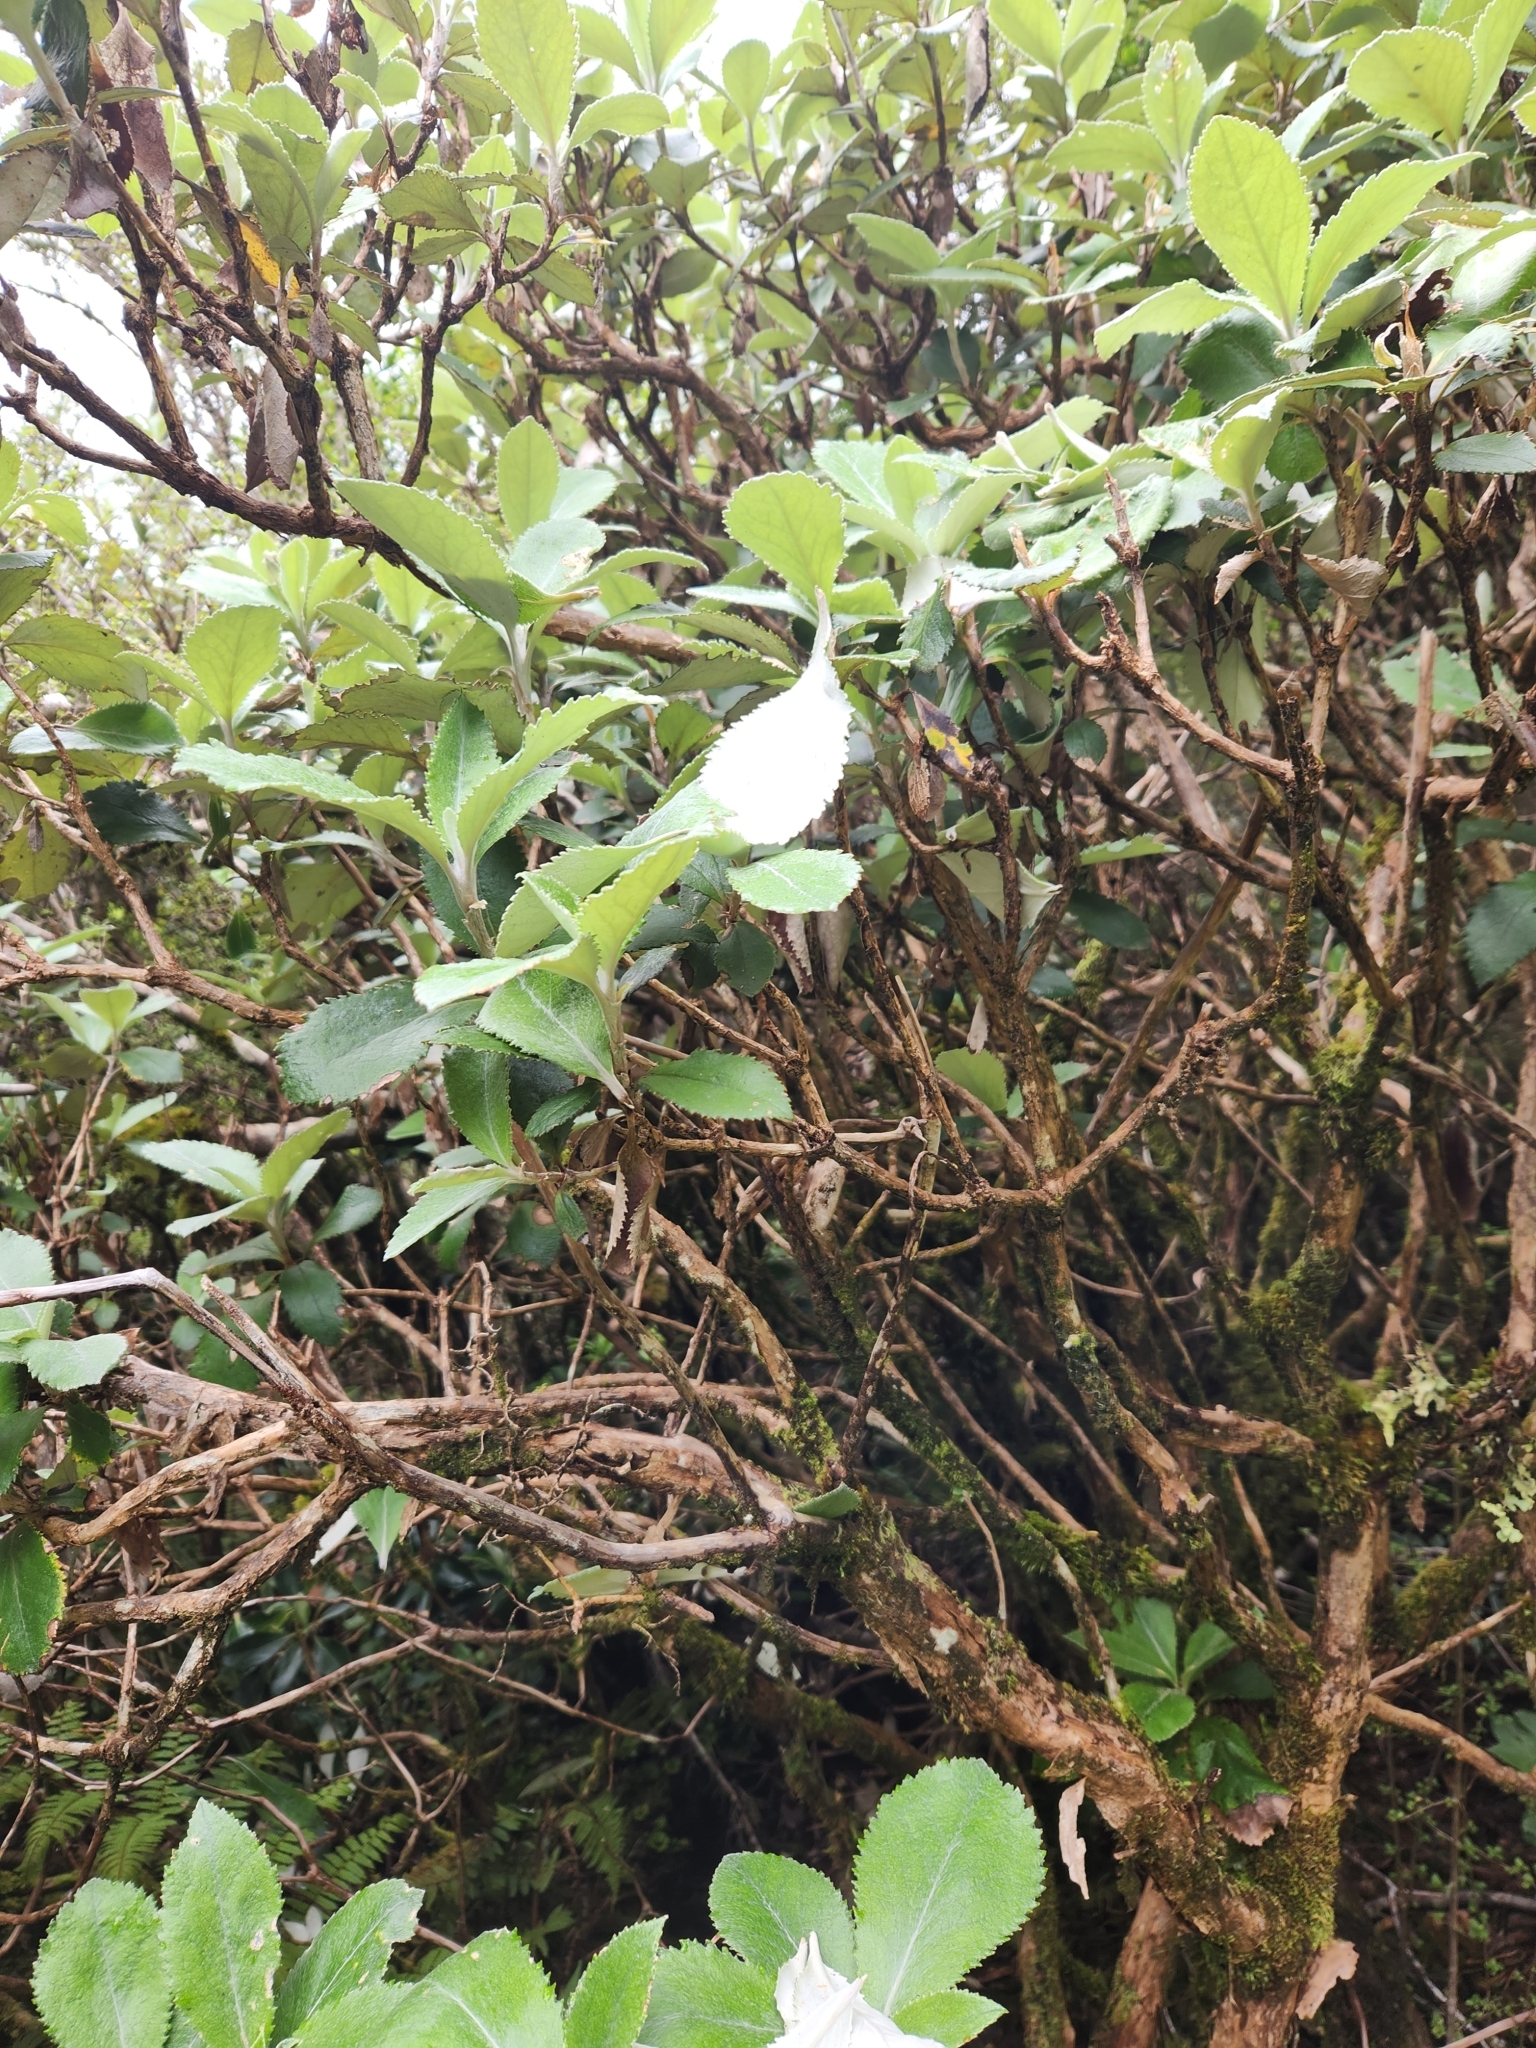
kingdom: Plantae
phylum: Tracheophyta
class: Magnoliopsida
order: Asterales
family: Asteraceae
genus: Macrolearia
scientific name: Macrolearia colensoi
